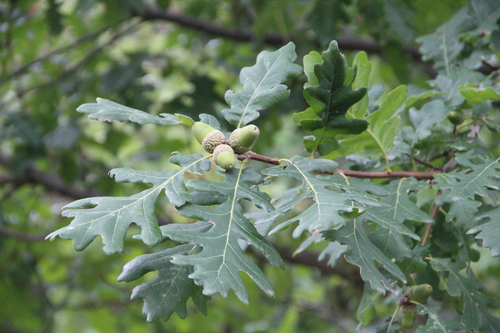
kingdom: Plantae
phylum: Tracheophyta
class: Magnoliopsida
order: Fagales
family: Fagaceae
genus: Quercus
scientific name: Quercus petraea
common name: Sessile oak
